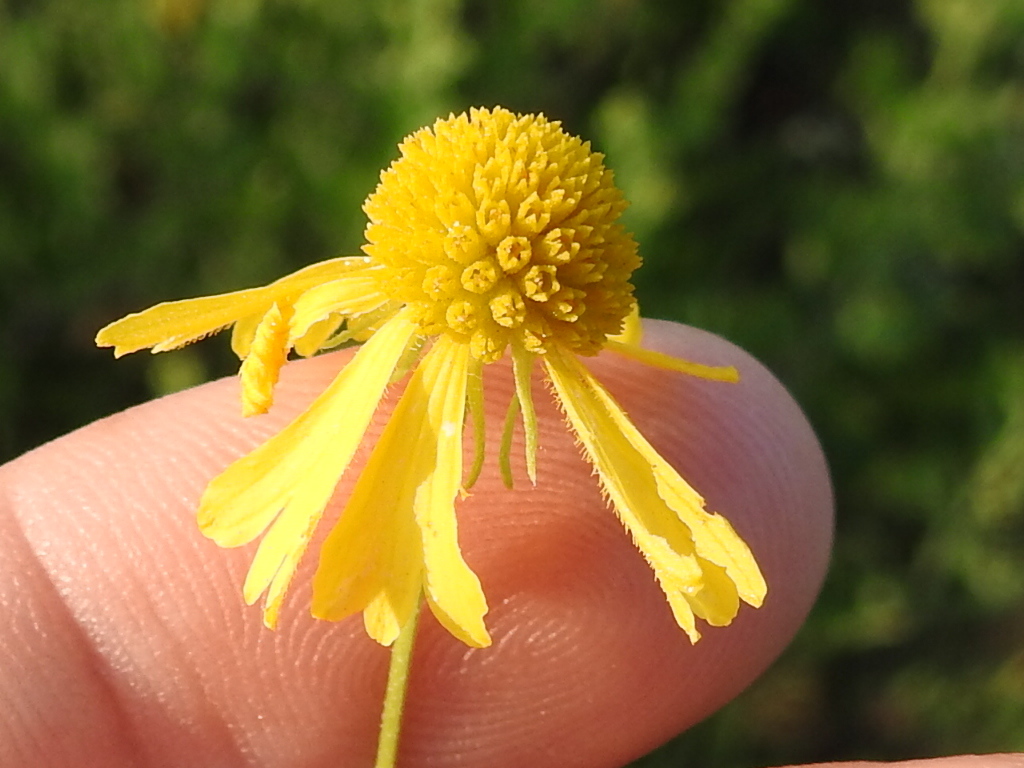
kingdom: Plantae
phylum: Tracheophyta
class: Magnoliopsida
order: Asterales
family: Asteraceae
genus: Helenium
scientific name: Helenium amarum
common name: Bitter sneezeweed
